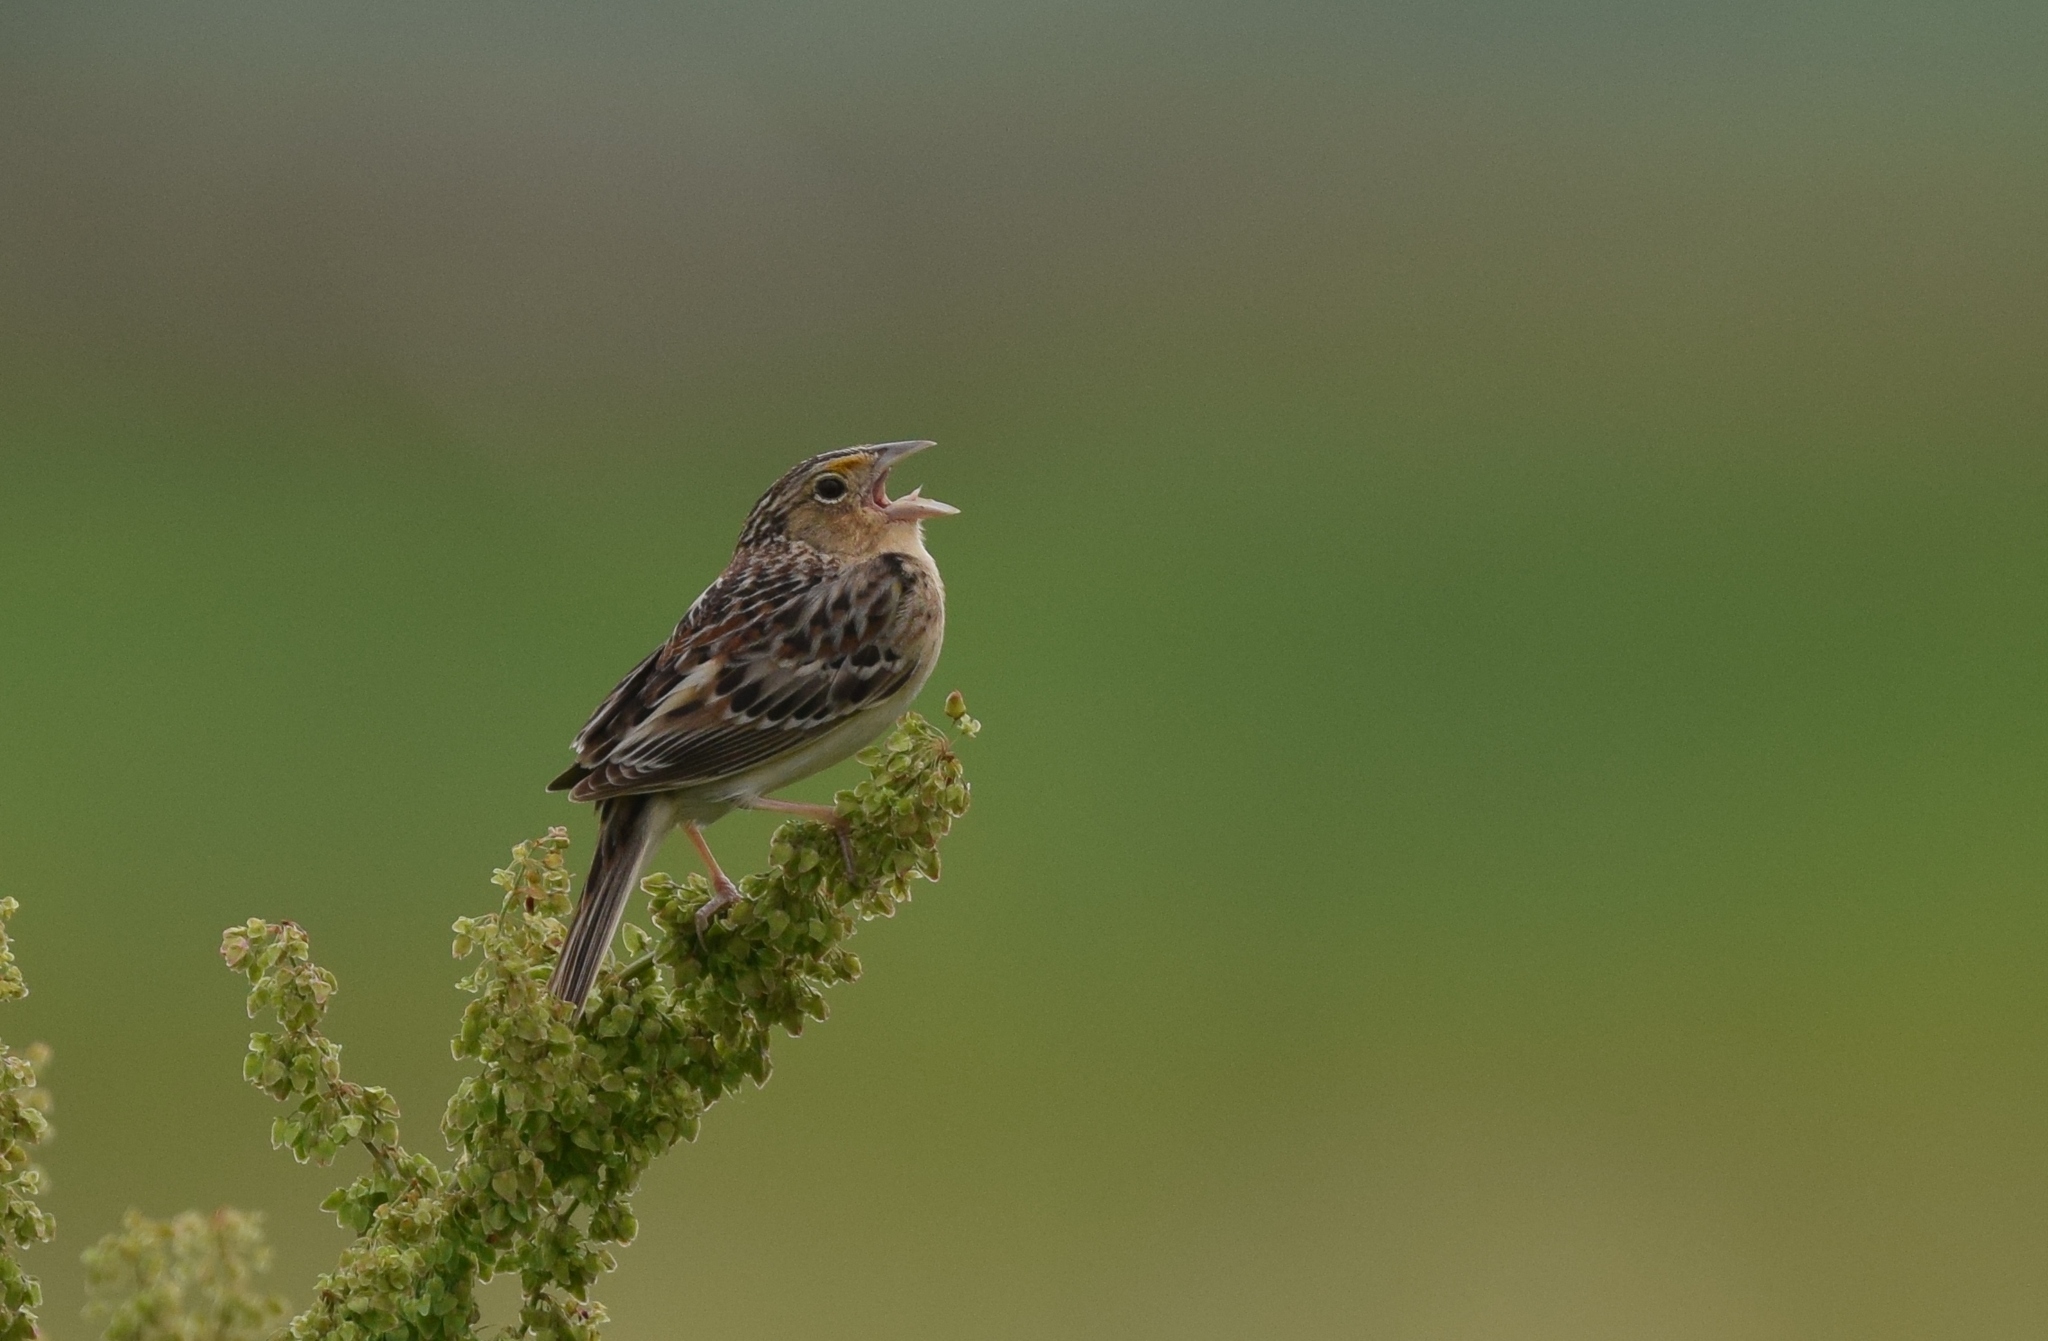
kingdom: Animalia
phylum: Chordata
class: Aves
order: Passeriformes
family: Passerellidae
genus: Ammodramus
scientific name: Ammodramus savannarum
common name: Grasshopper sparrow
